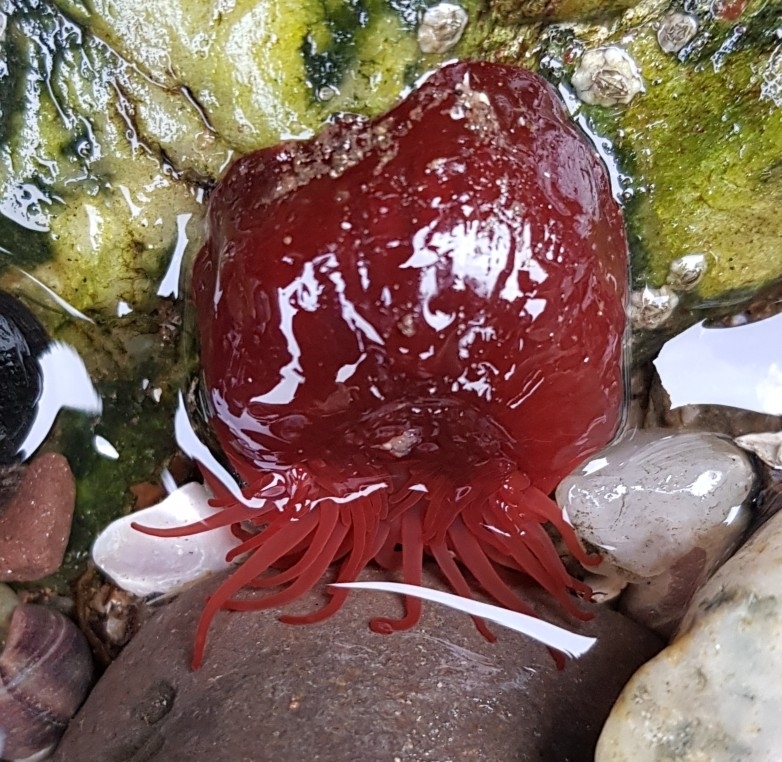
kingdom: Animalia
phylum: Cnidaria
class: Anthozoa
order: Actiniaria
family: Actiniidae
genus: Actinia
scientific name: Actinia equina
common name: Beadlet anemone
